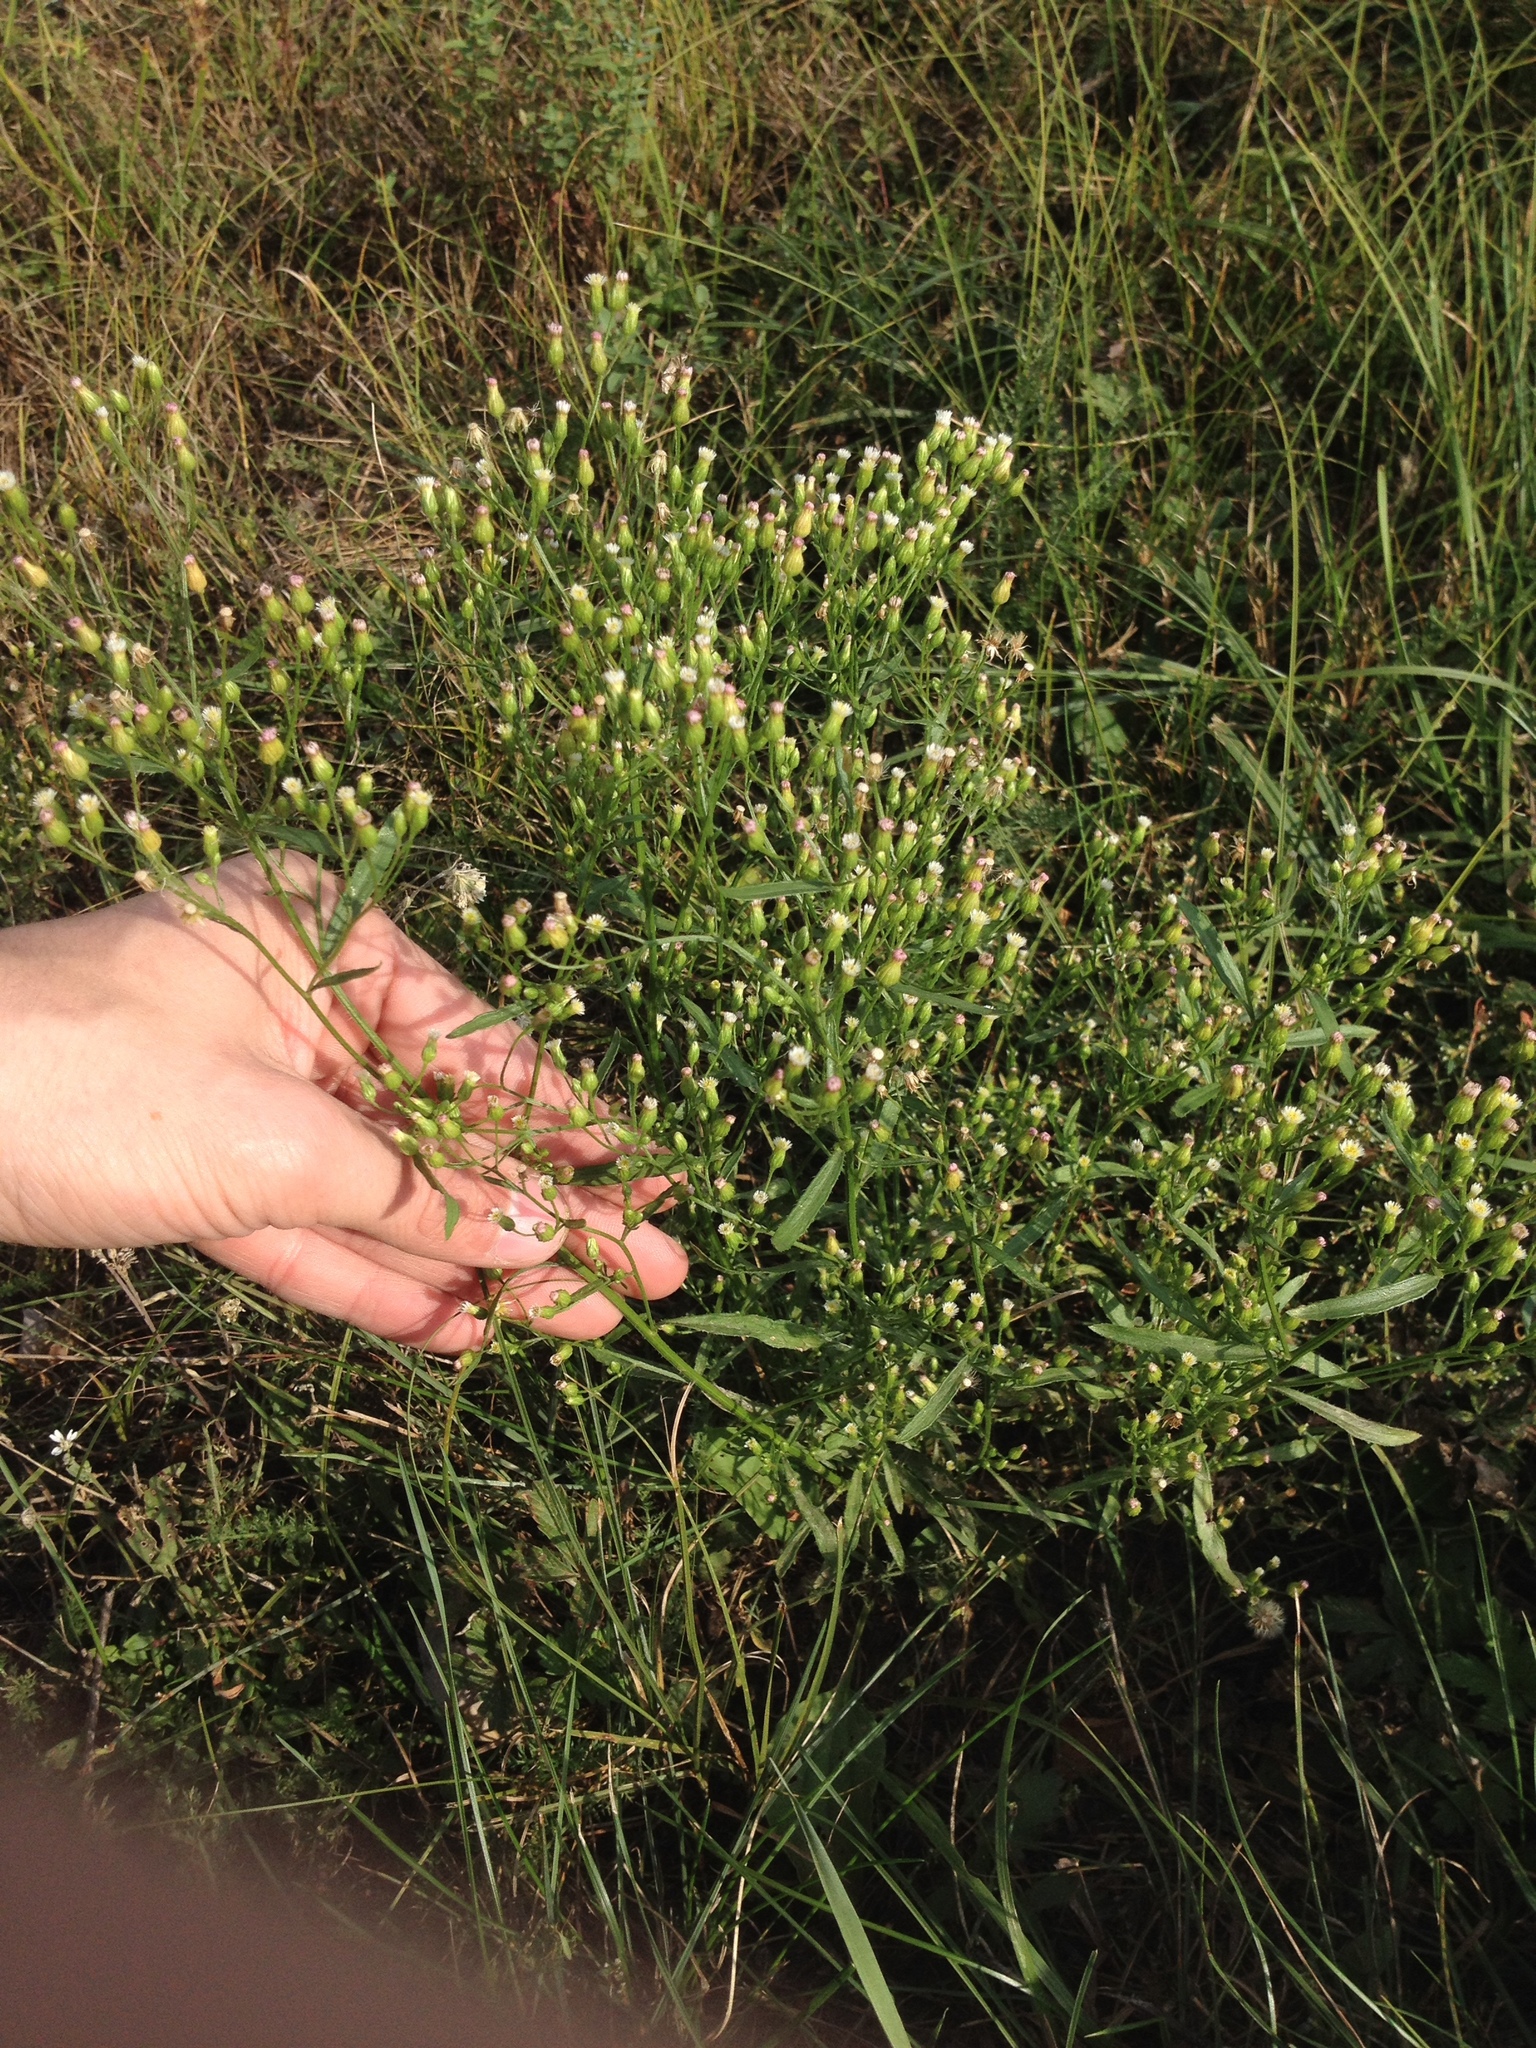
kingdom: Plantae
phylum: Tracheophyta
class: Magnoliopsida
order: Asterales
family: Asteraceae
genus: Erigeron
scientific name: Erigeron canadensis
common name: Canadian fleabane
